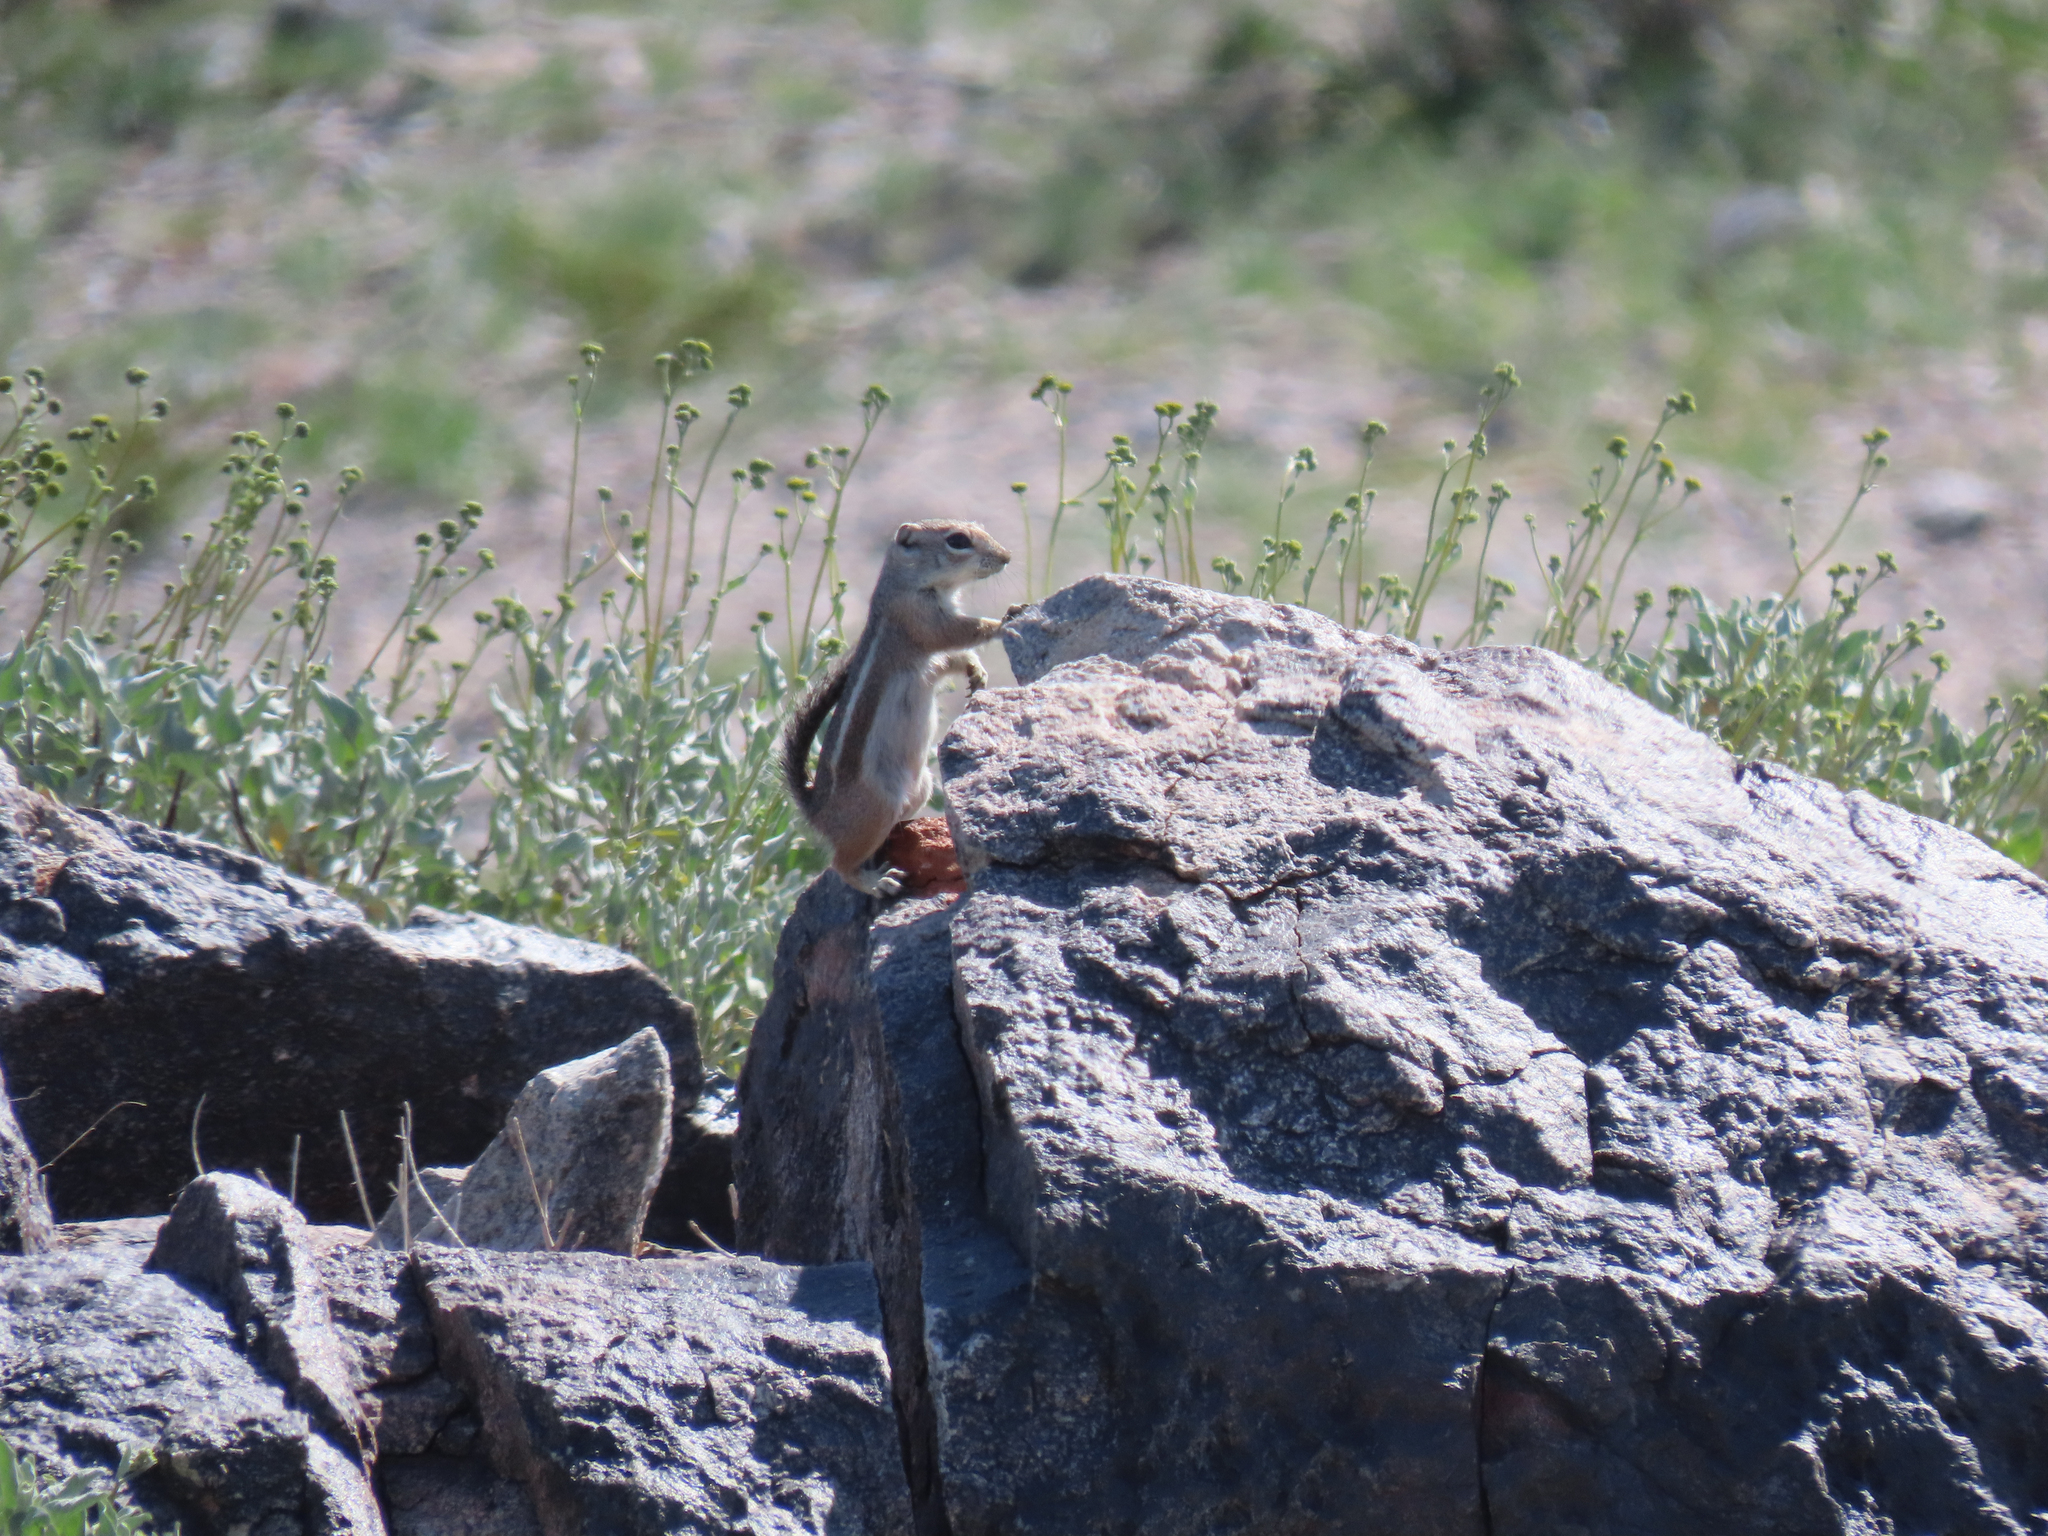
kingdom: Animalia
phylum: Chordata
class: Mammalia
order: Rodentia
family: Sciuridae
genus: Ammospermophilus
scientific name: Ammospermophilus harrisii
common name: Harris's antelope squirrel
